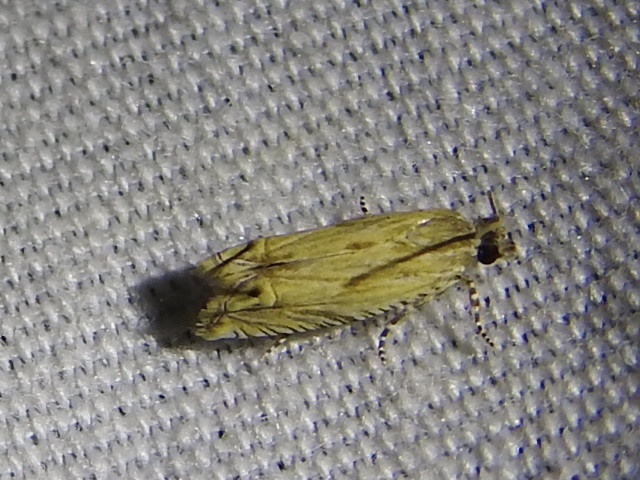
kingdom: Animalia
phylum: Arthropoda
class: Insecta
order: Lepidoptera
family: Tortricidae
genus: Eucosma
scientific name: Eucosma grindeliana
